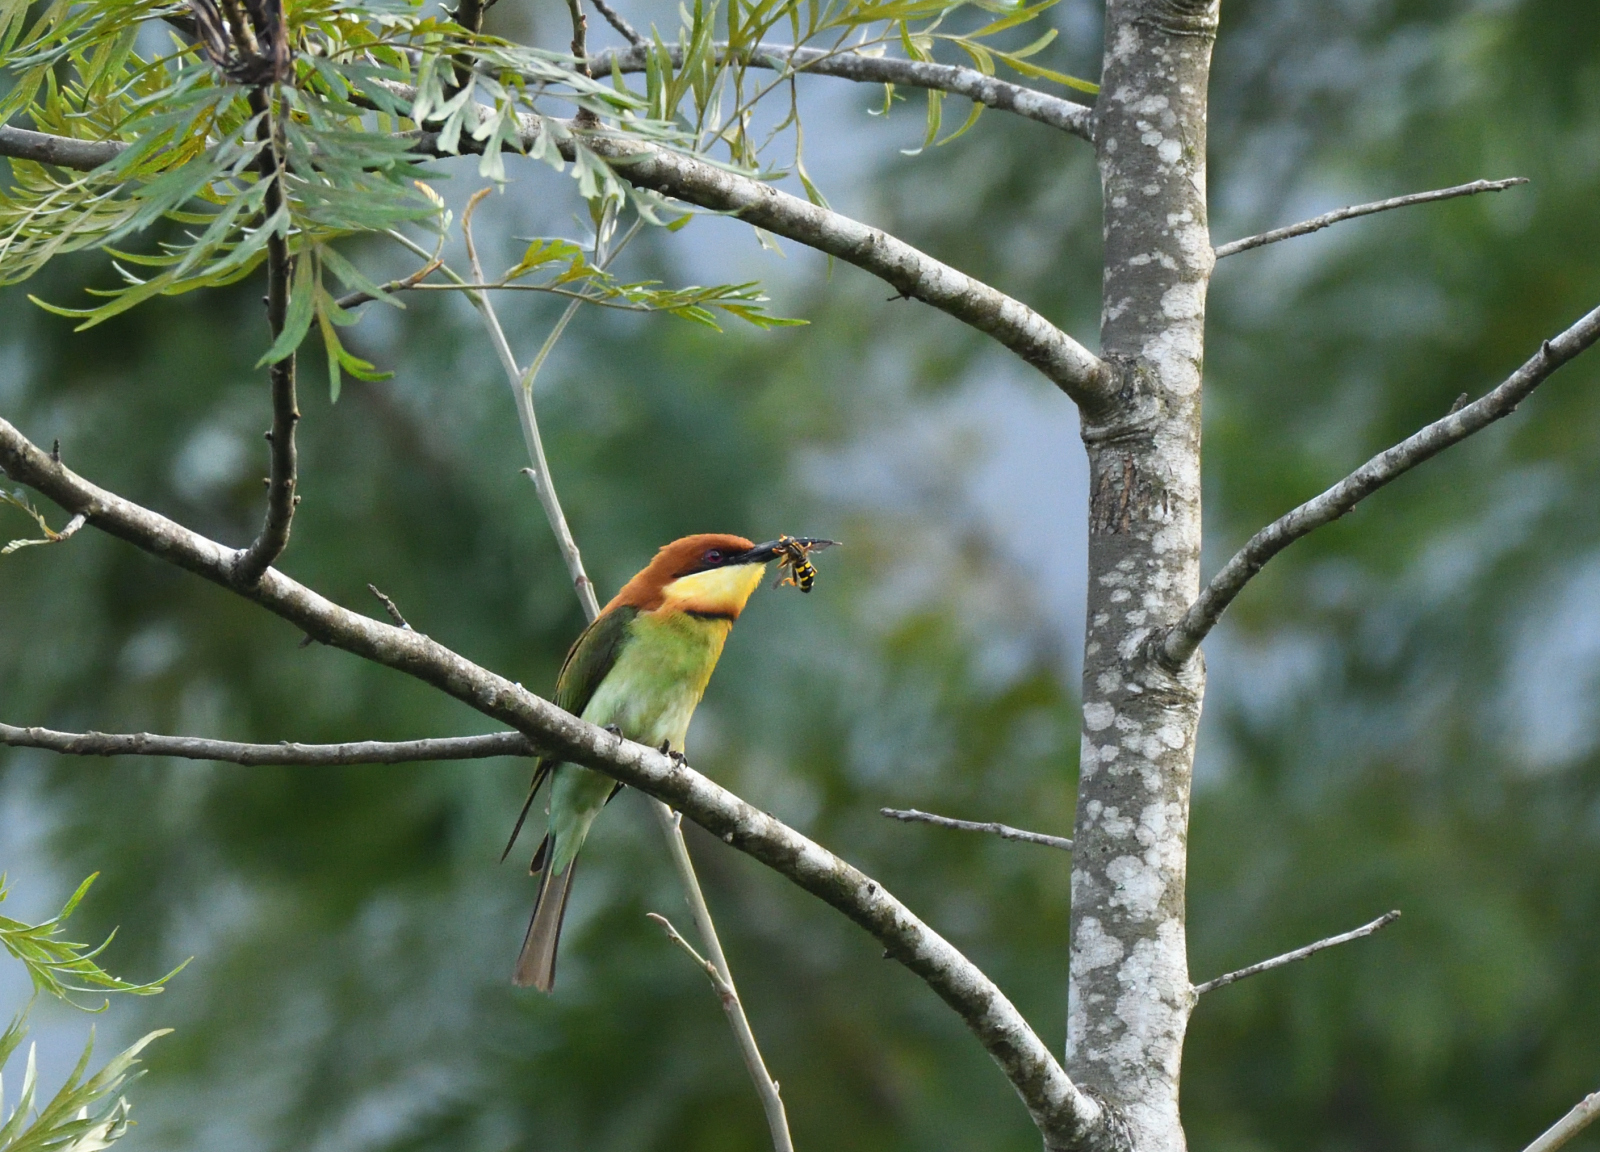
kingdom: Animalia
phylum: Chordata
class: Aves
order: Coraciiformes
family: Meropidae
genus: Merops
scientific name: Merops leschenaulti
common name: Chestnut-headed bee-eater
